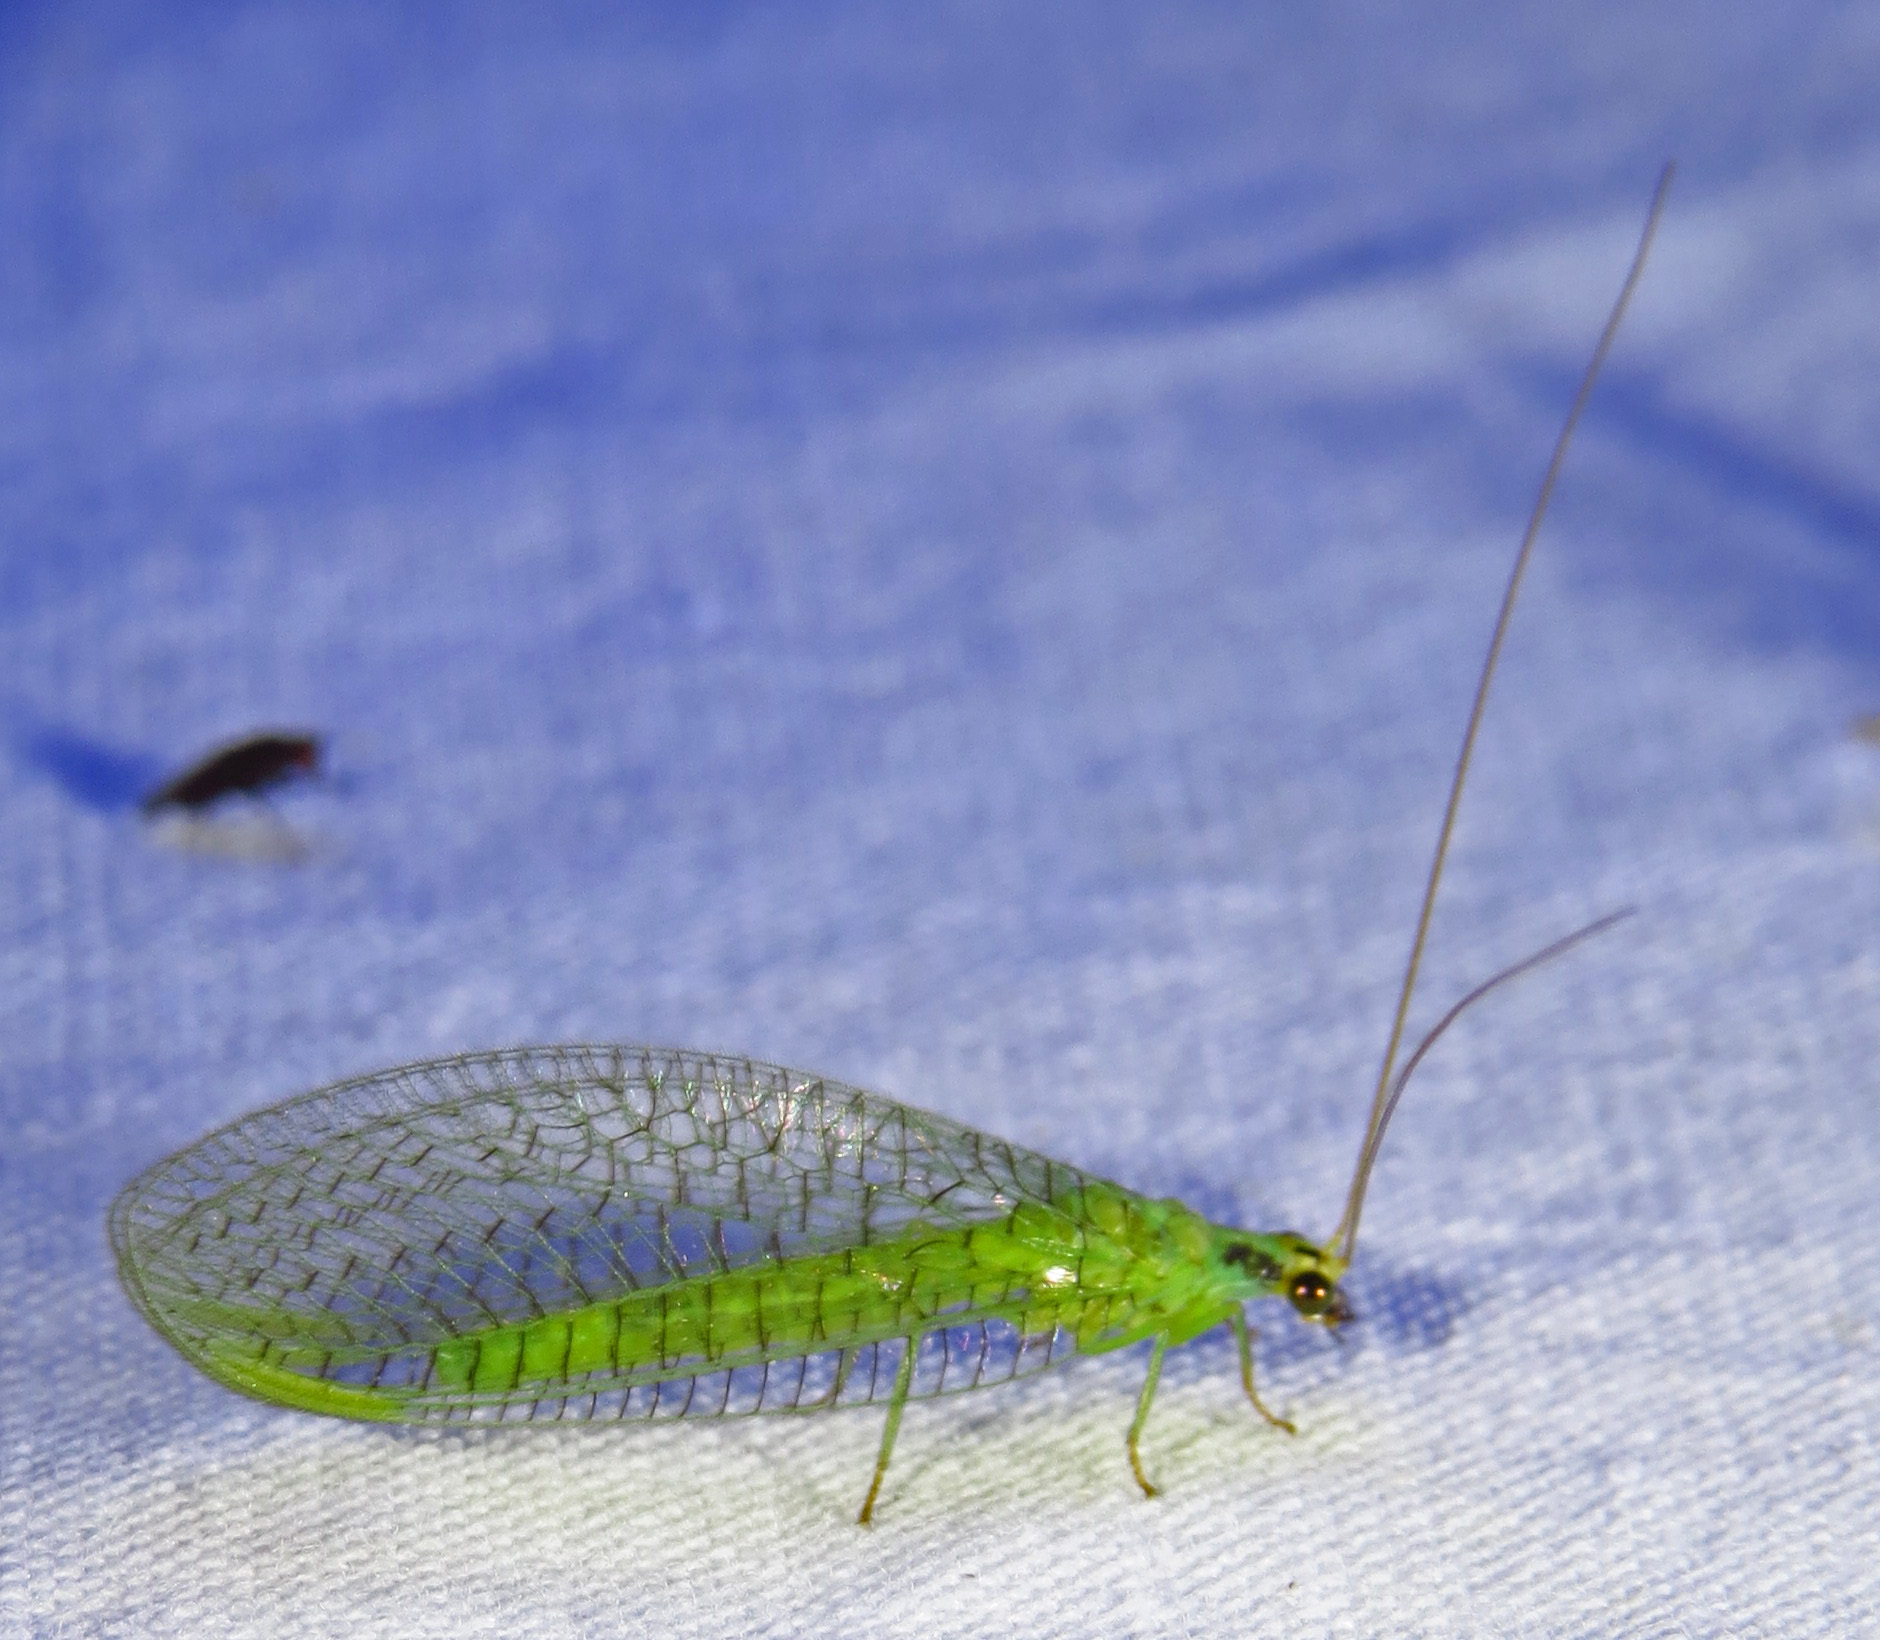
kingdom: Animalia
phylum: Arthropoda
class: Insecta
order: Neuroptera
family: Chrysopidae
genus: Chrysopa
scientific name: Chrysopa incompleta
